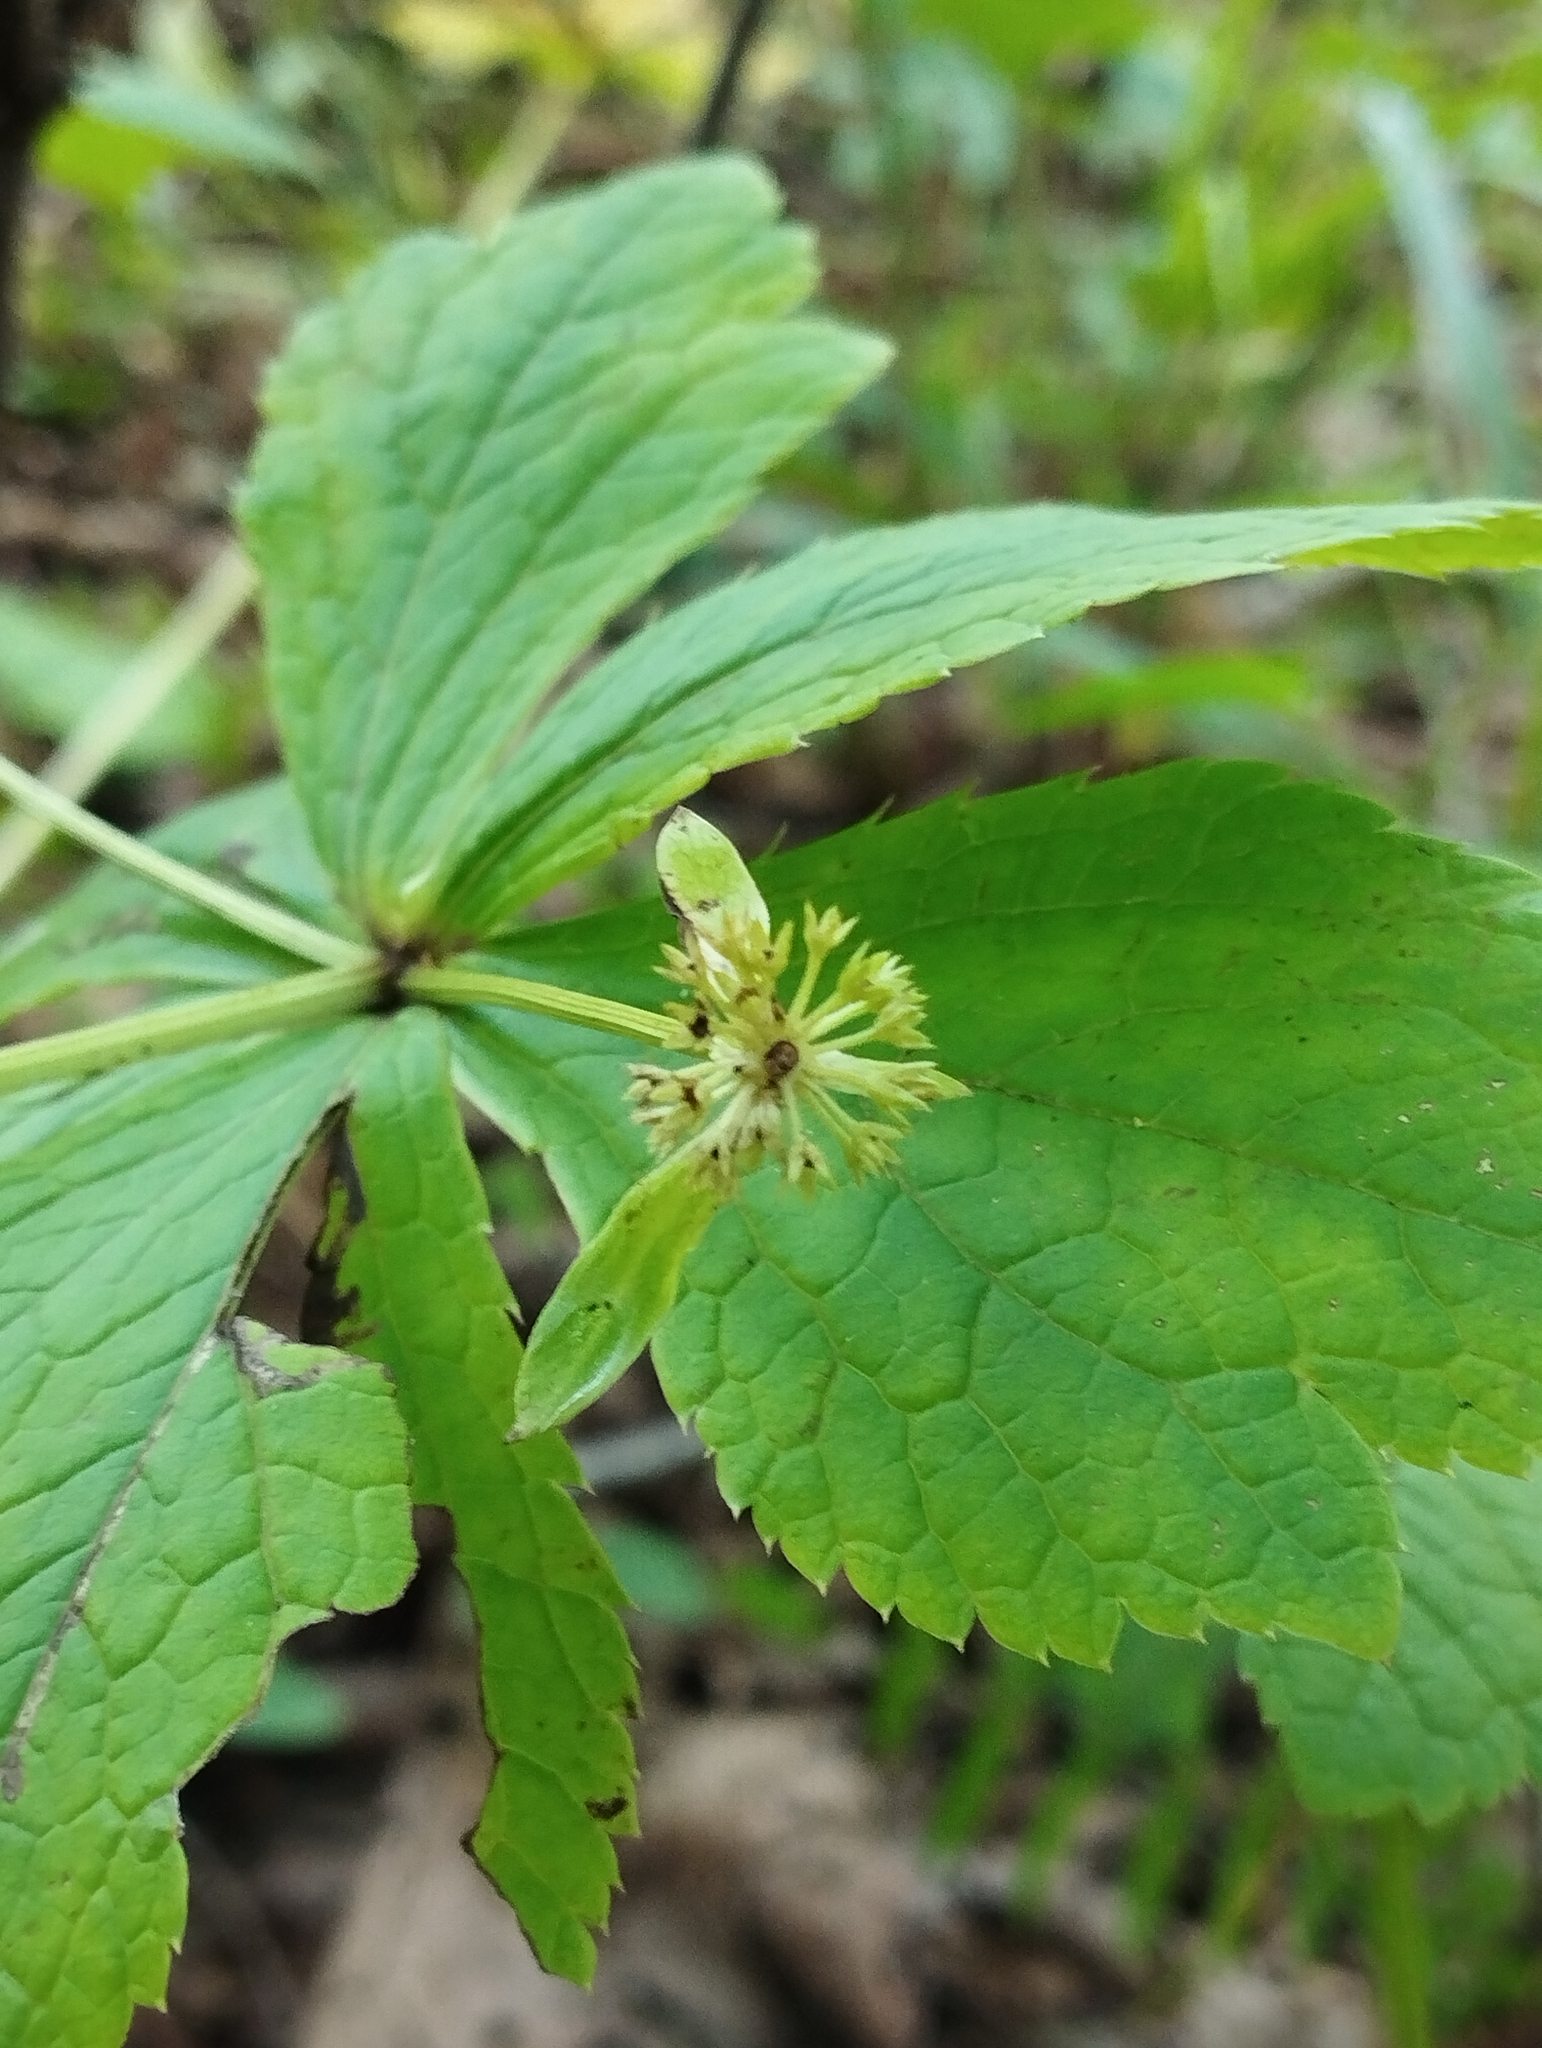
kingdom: Plantae
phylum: Tracheophyta
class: Magnoliopsida
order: Apiales
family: Apiaceae
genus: Sanicula
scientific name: Sanicula rubriflora
